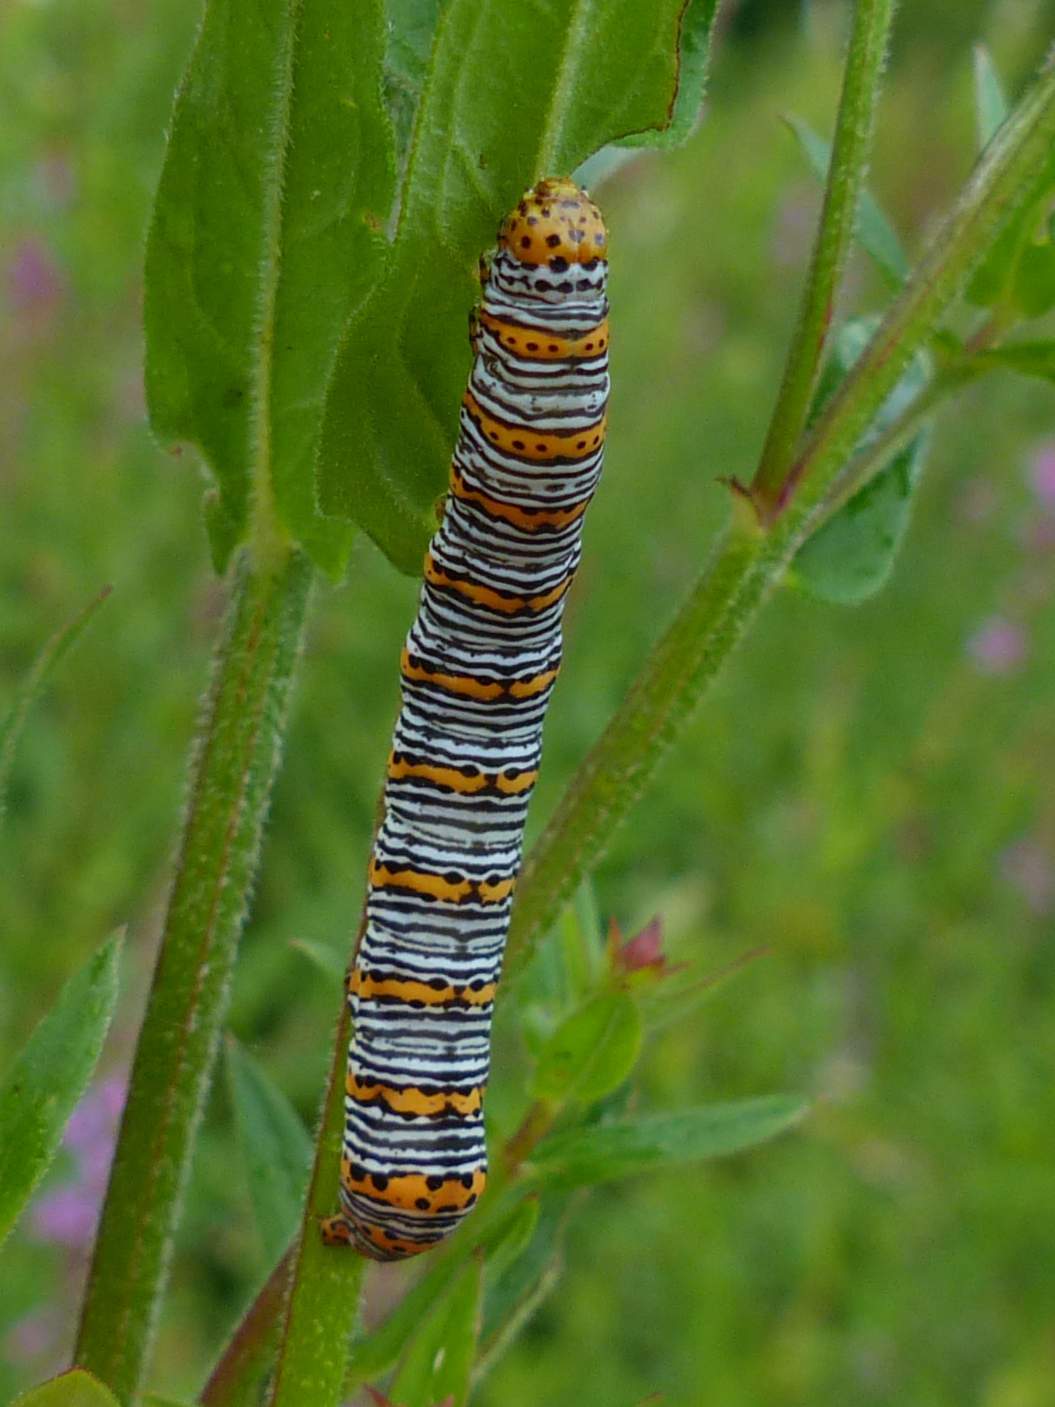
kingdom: Animalia
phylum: Arthropoda
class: Insecta
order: Lepidoptera
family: Noctuidae
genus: Eudryas
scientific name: Eudryas unio
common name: Pearly wood-nymph
